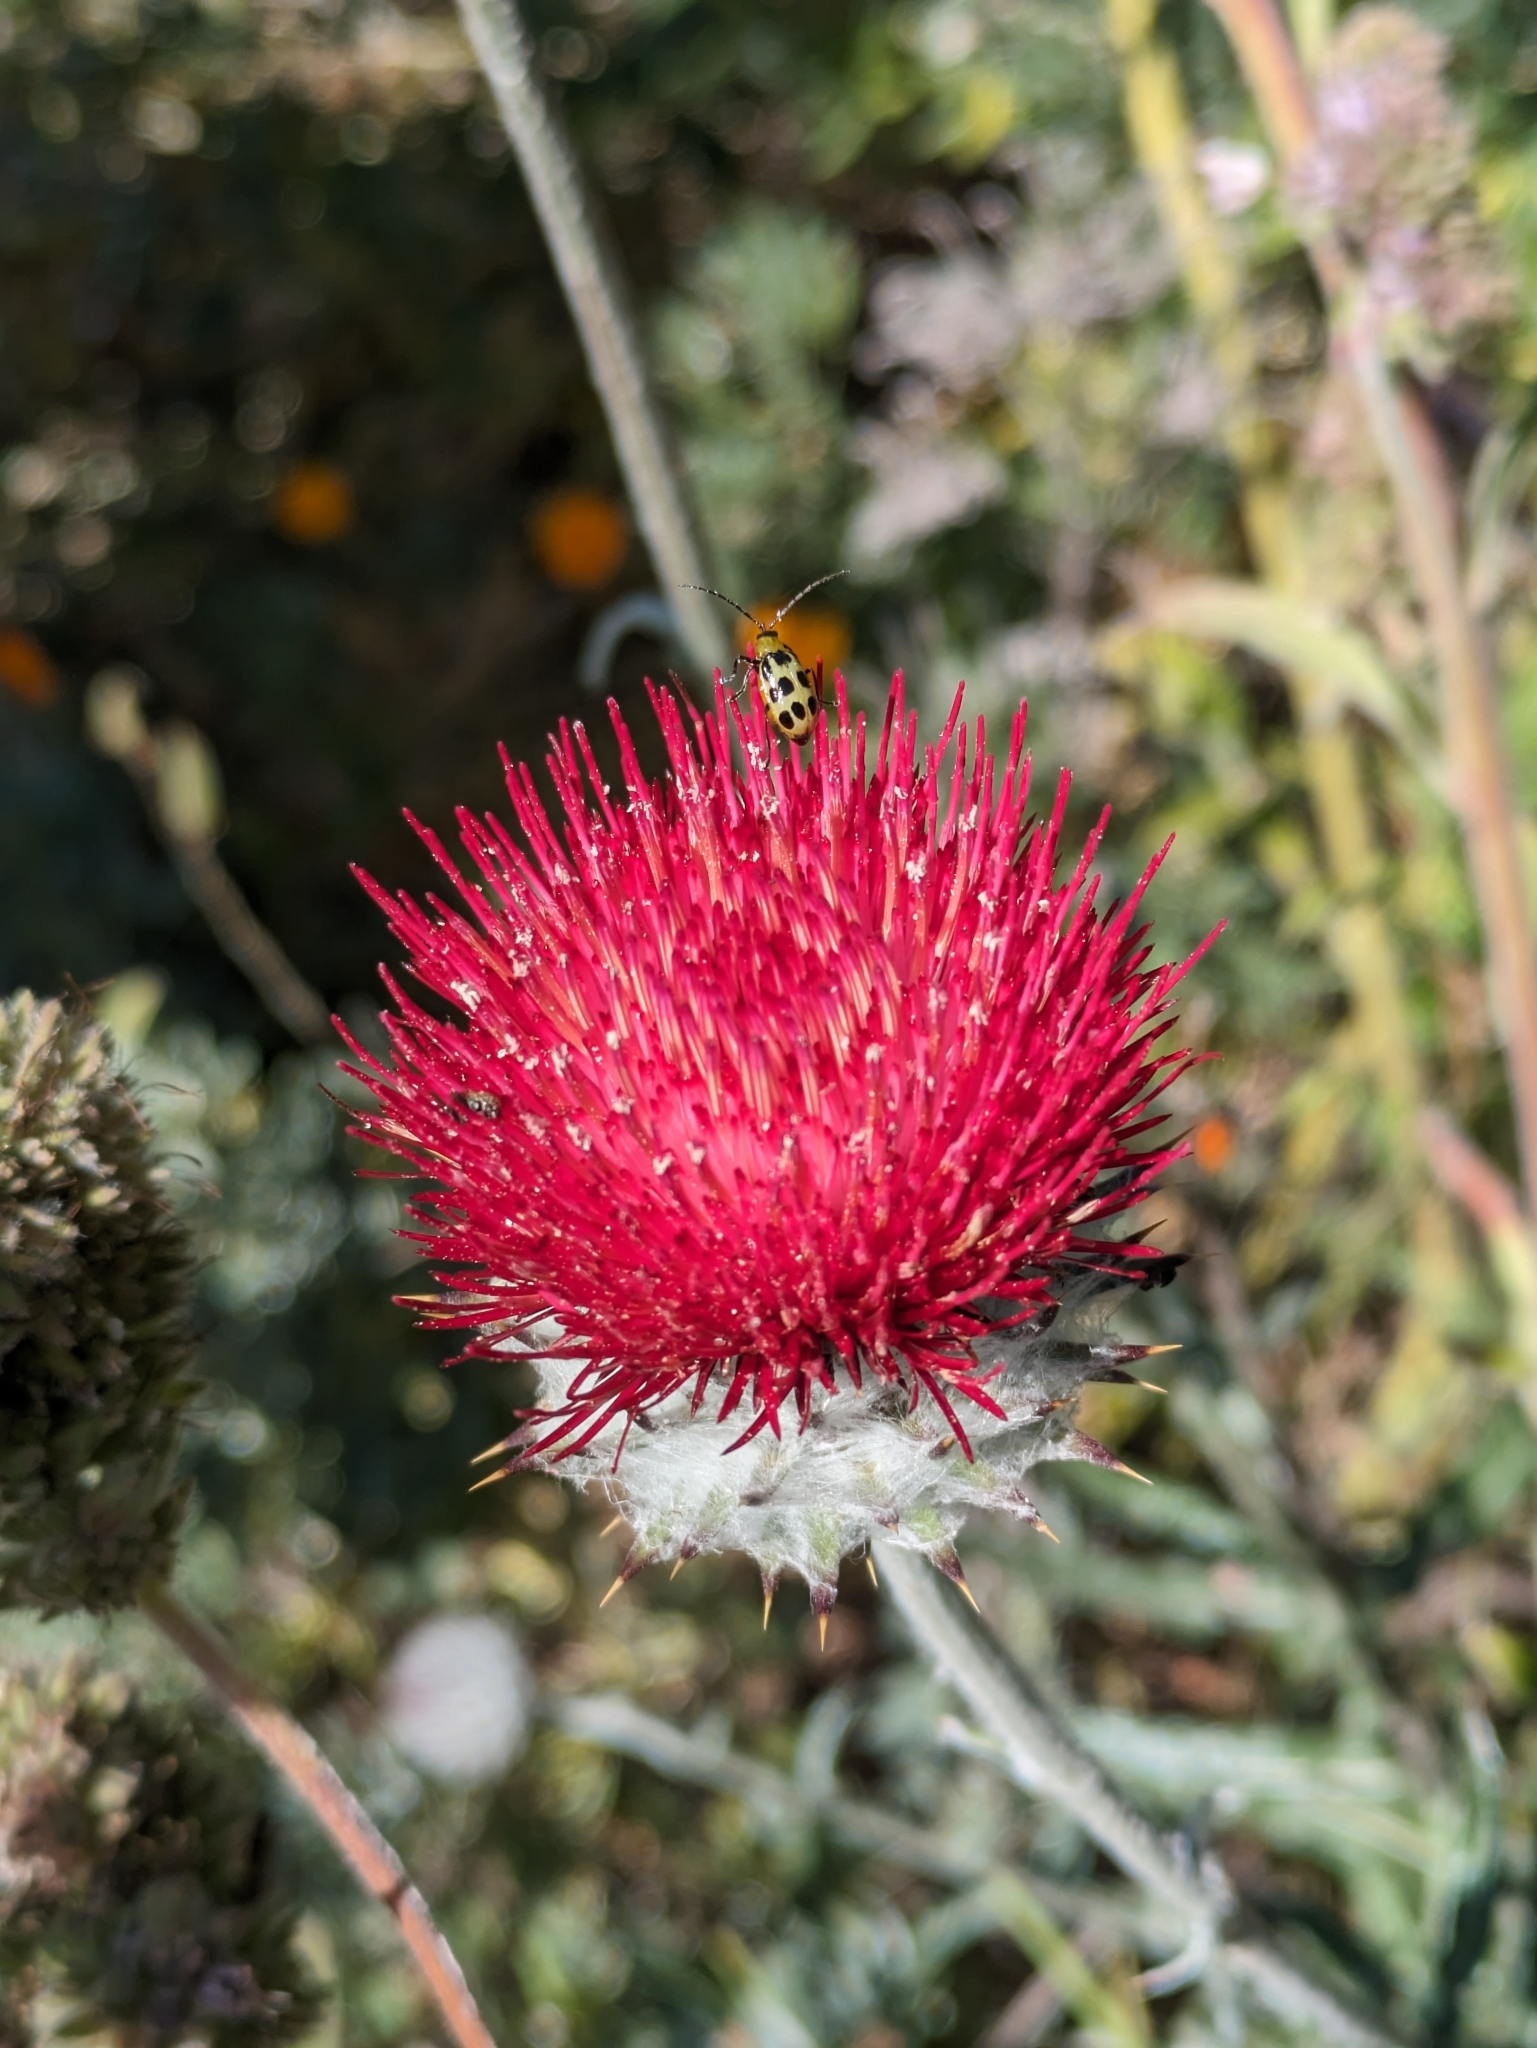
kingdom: Plantae
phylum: Tracheophyta
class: Magnoliopsida
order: Asterales
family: Asteraceae
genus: Cirsium
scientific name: Cirsium occidentale
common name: Western thistle
